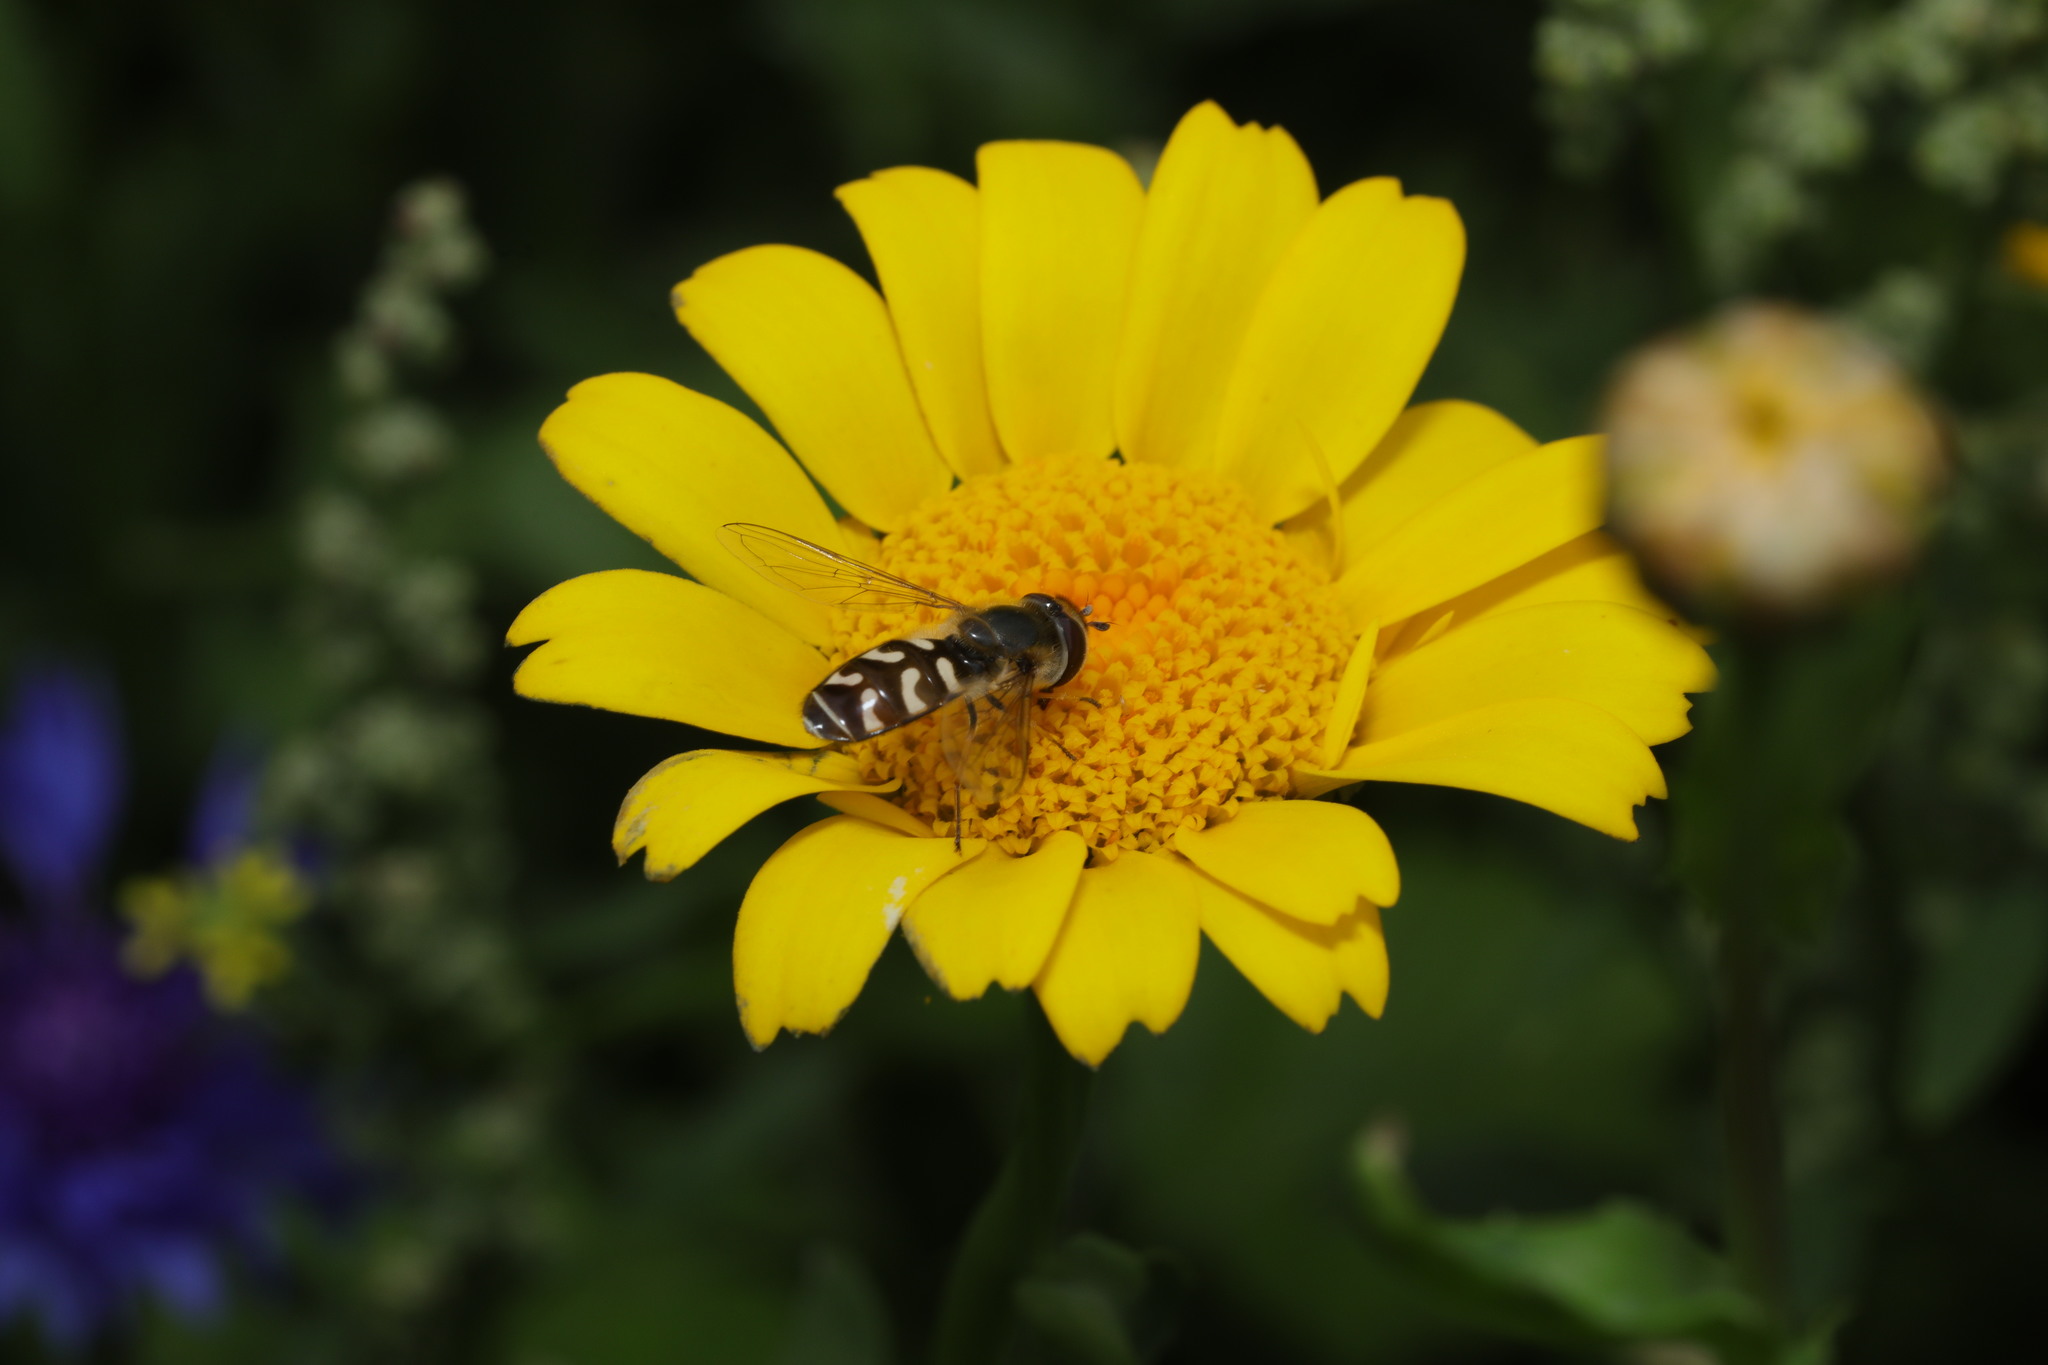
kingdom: Animalia
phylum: Arthropoda
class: Insecta
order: Diptera
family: Syrphidae
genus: Scaeva
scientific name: Scaeva pyrastri
